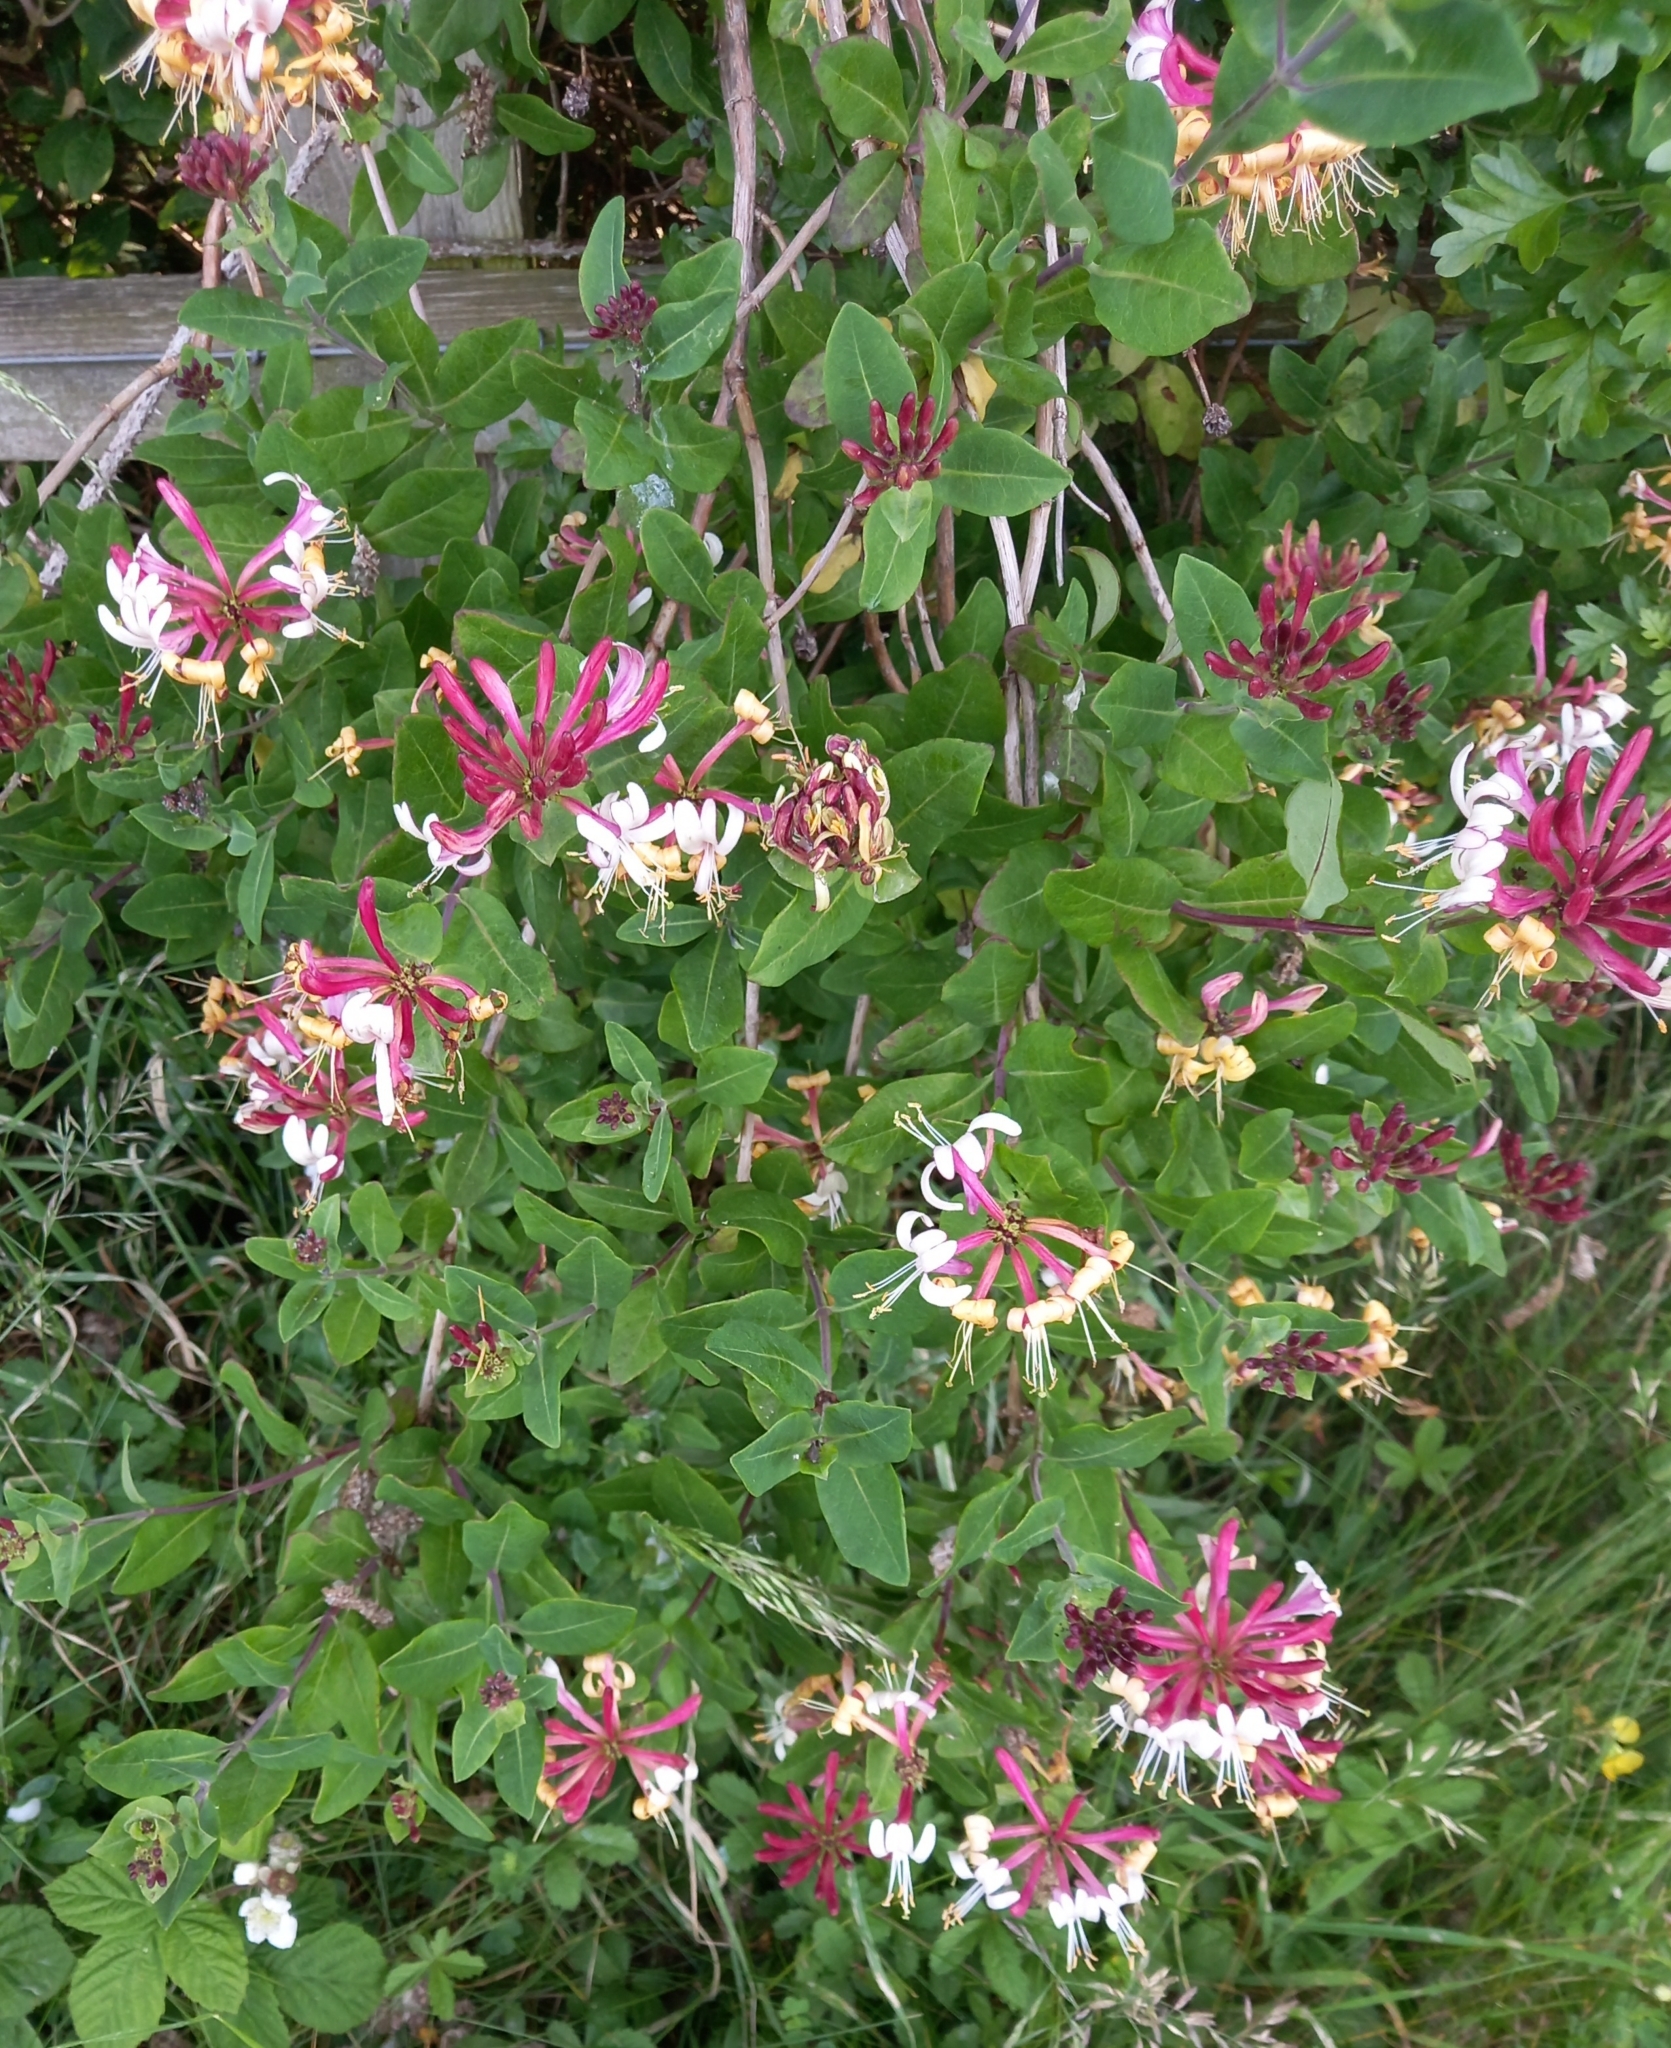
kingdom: Plantae
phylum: Tracheophyta
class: Magnoliopsida
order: Dipsacales
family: Caprifoliaceae
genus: Lonicera
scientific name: Lonicera periclymenum
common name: European honeysuckle
